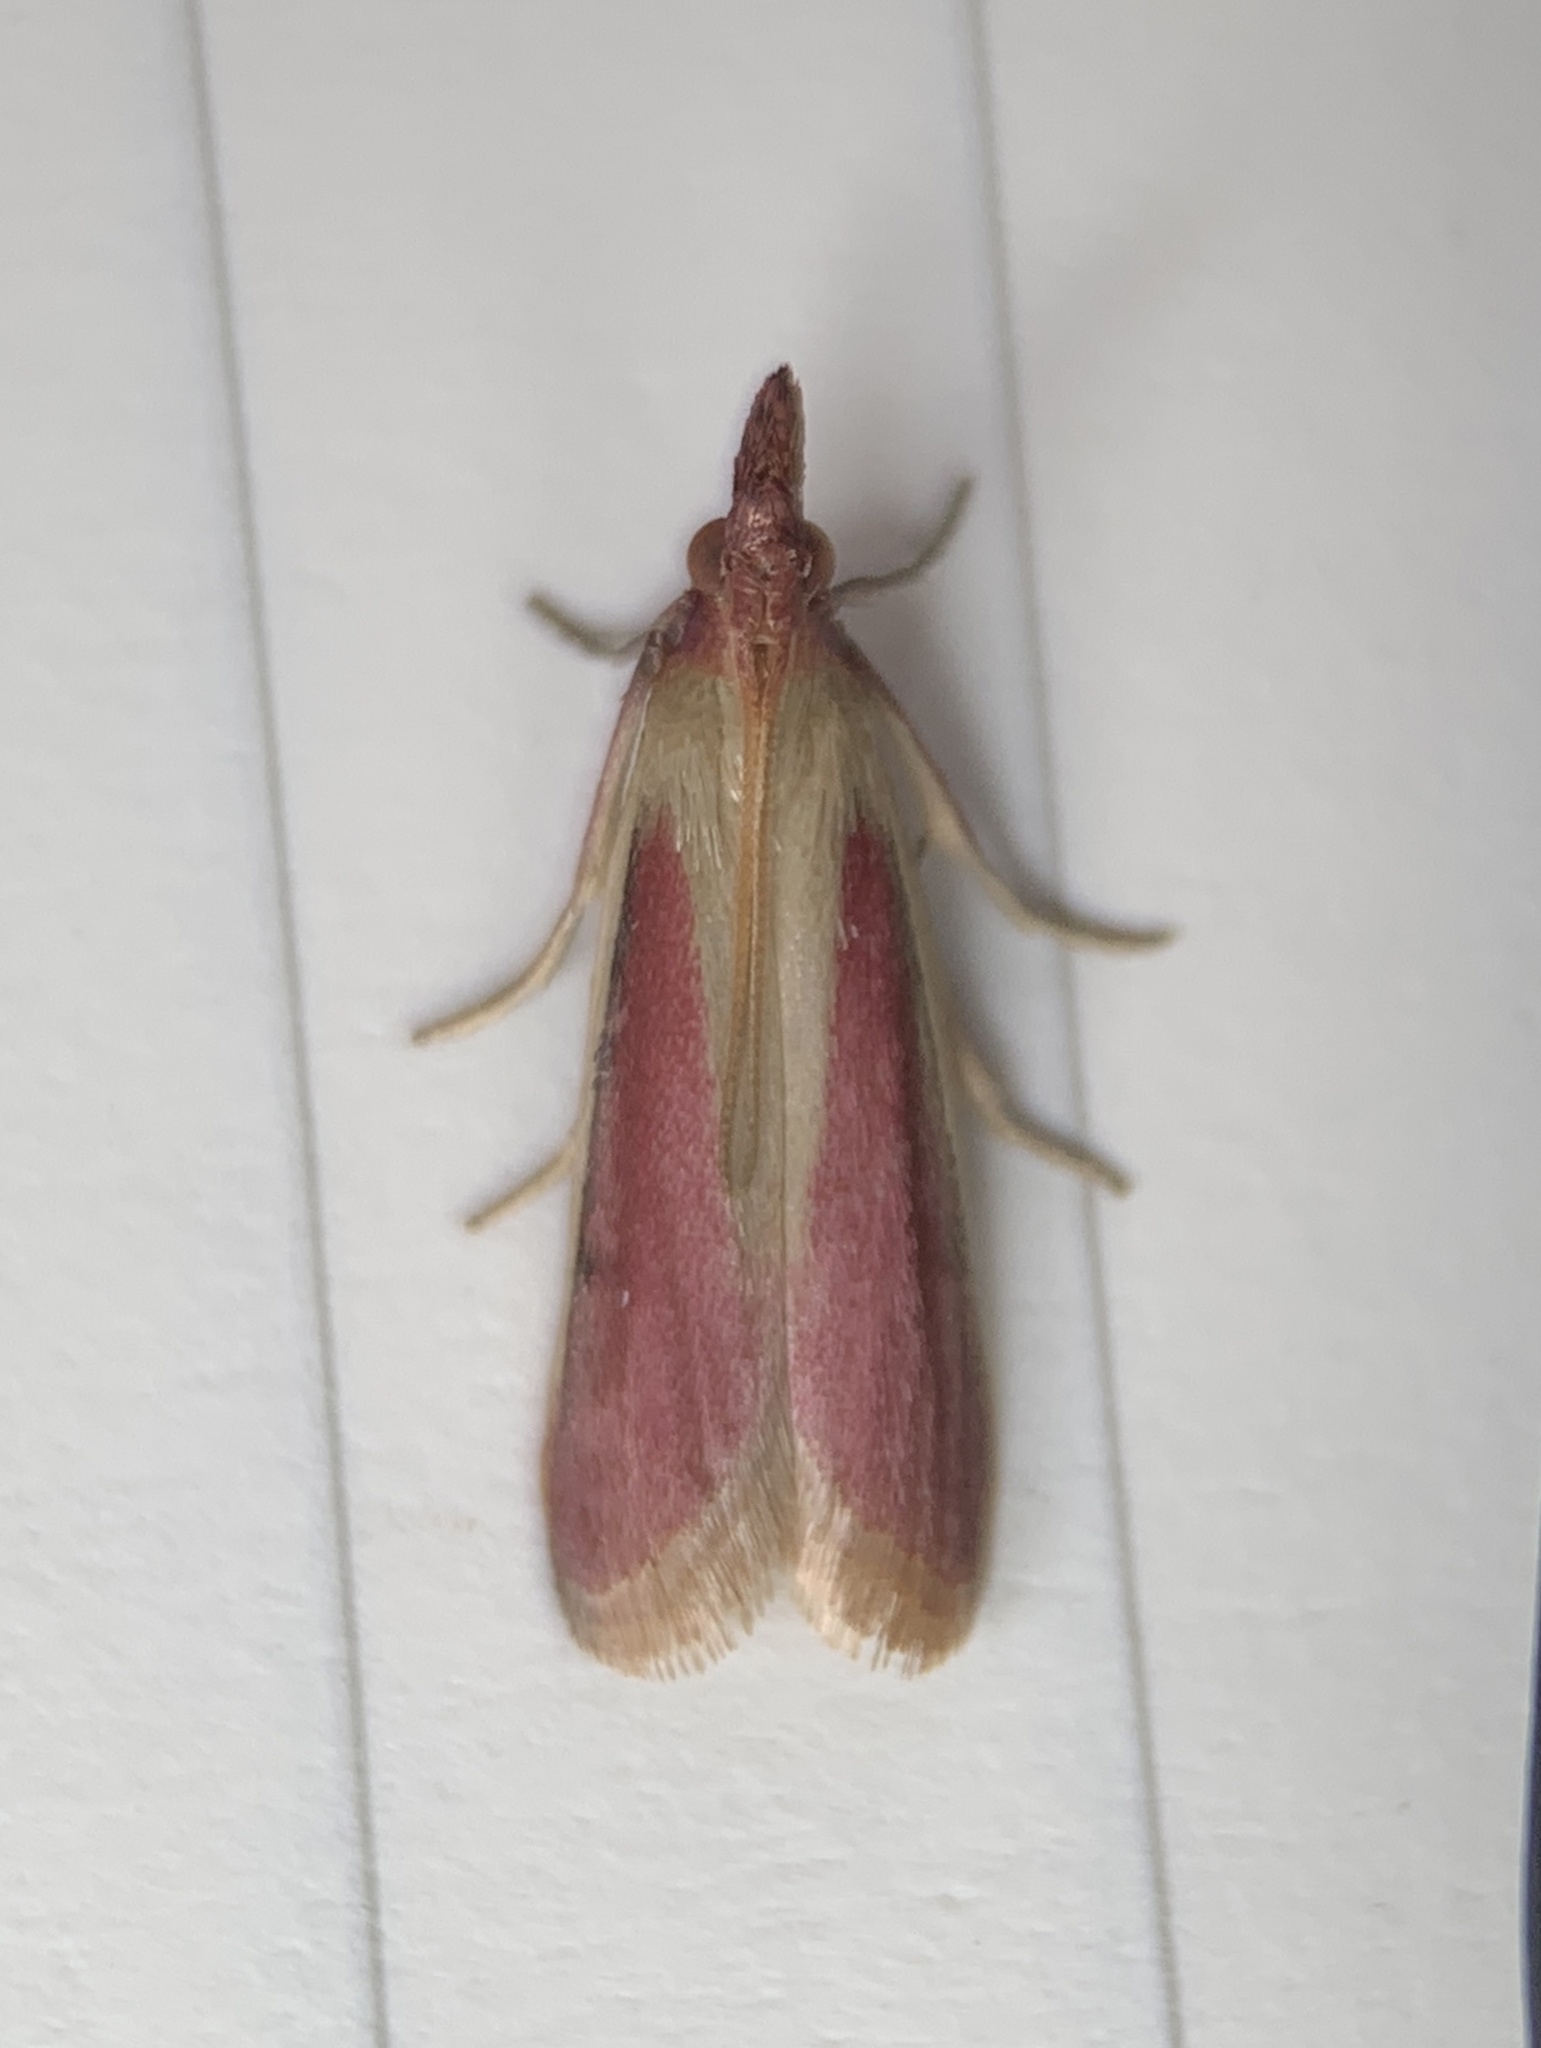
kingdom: Animalia
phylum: Arthropoda
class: Insecta
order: Lepidoptera
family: Pyralidae
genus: Peoria
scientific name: Peoria approximella
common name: Carmine snout
